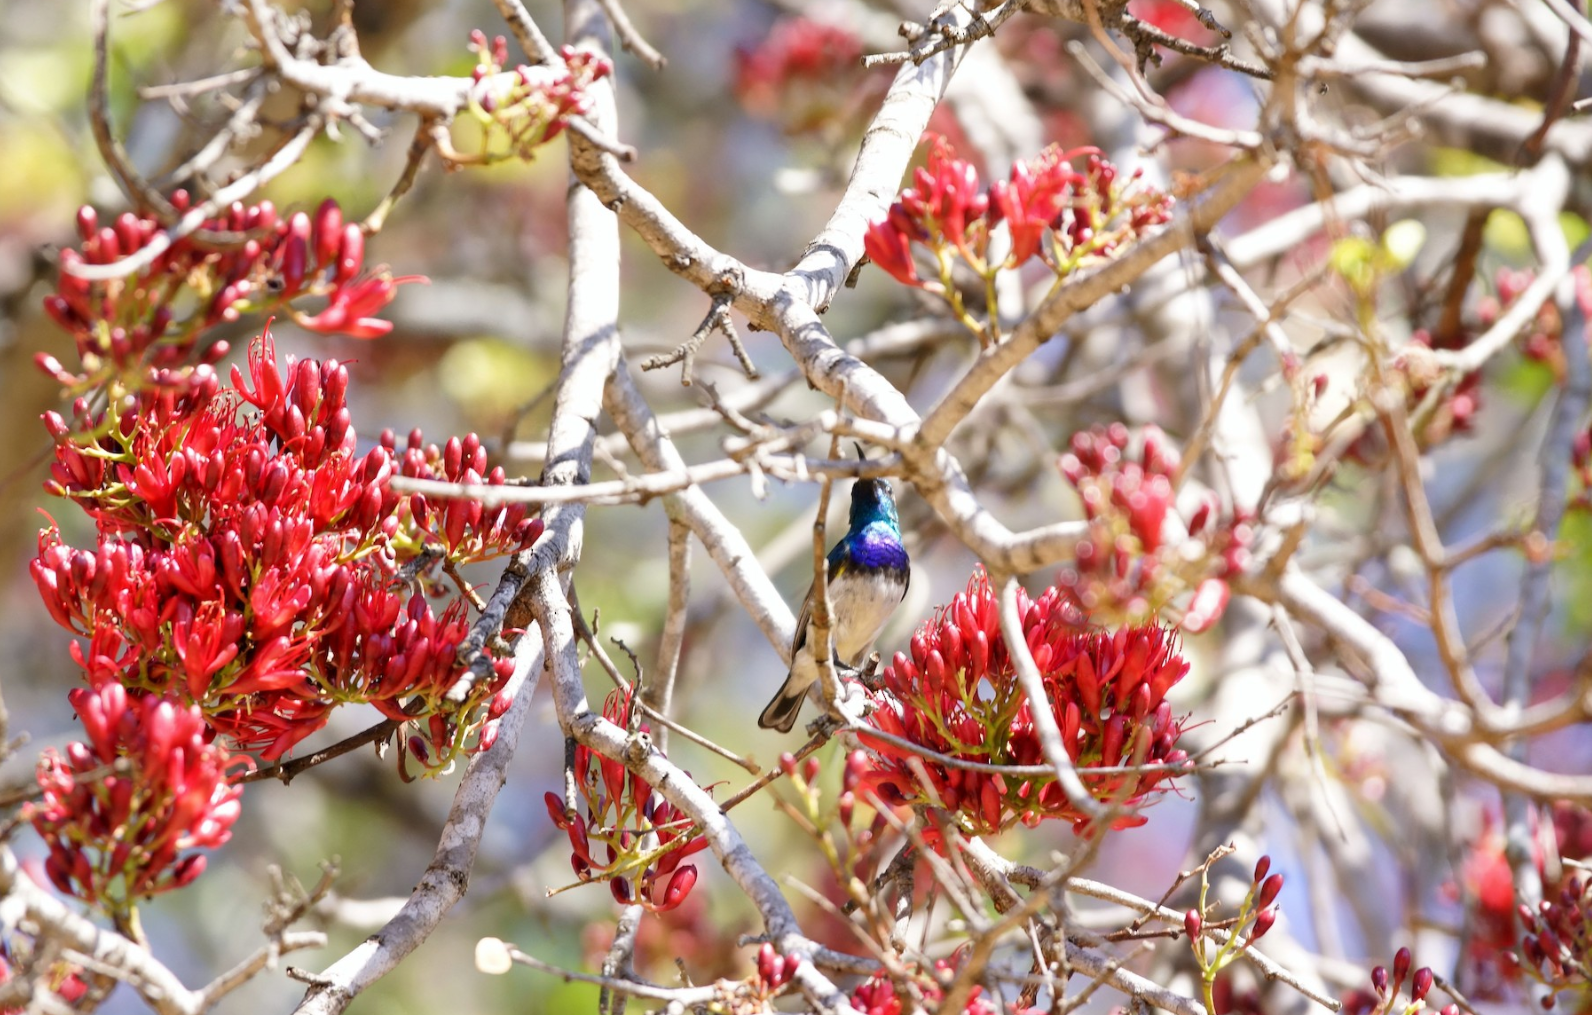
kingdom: Animalia
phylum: Chordata
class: Aves
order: Passeriformes
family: Nectariniidae
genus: Cinnyris
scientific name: Cinnyris talatala
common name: White-bellied sunbird
